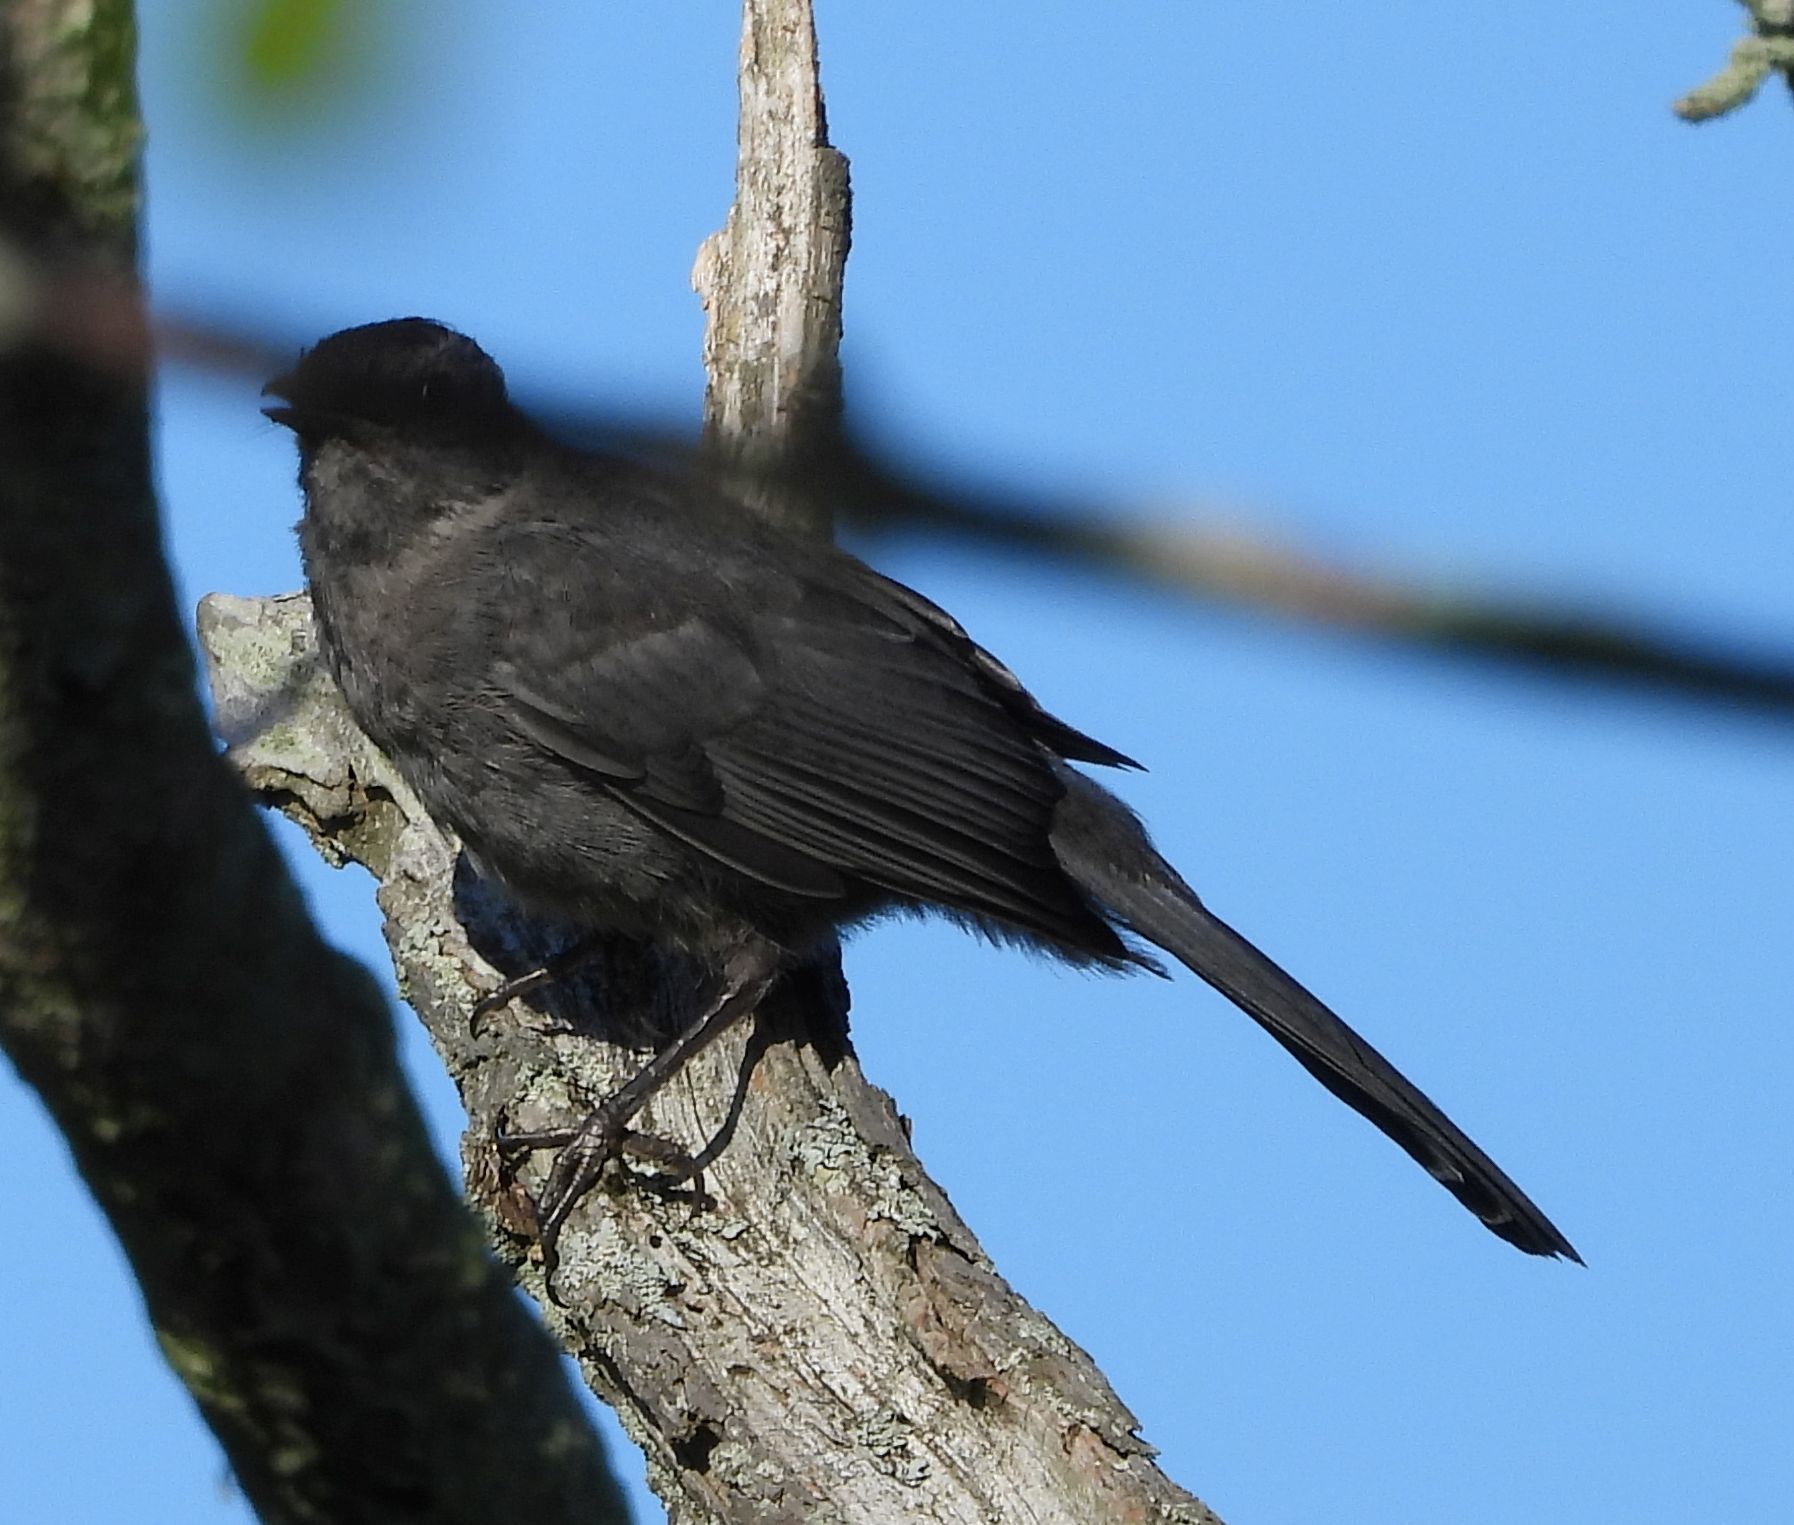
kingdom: Animalia
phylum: Chordata
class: Aves
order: Passeriformes
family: Mimidae
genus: Dumetella
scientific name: Dumetella carolinensis
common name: Gray catbird
